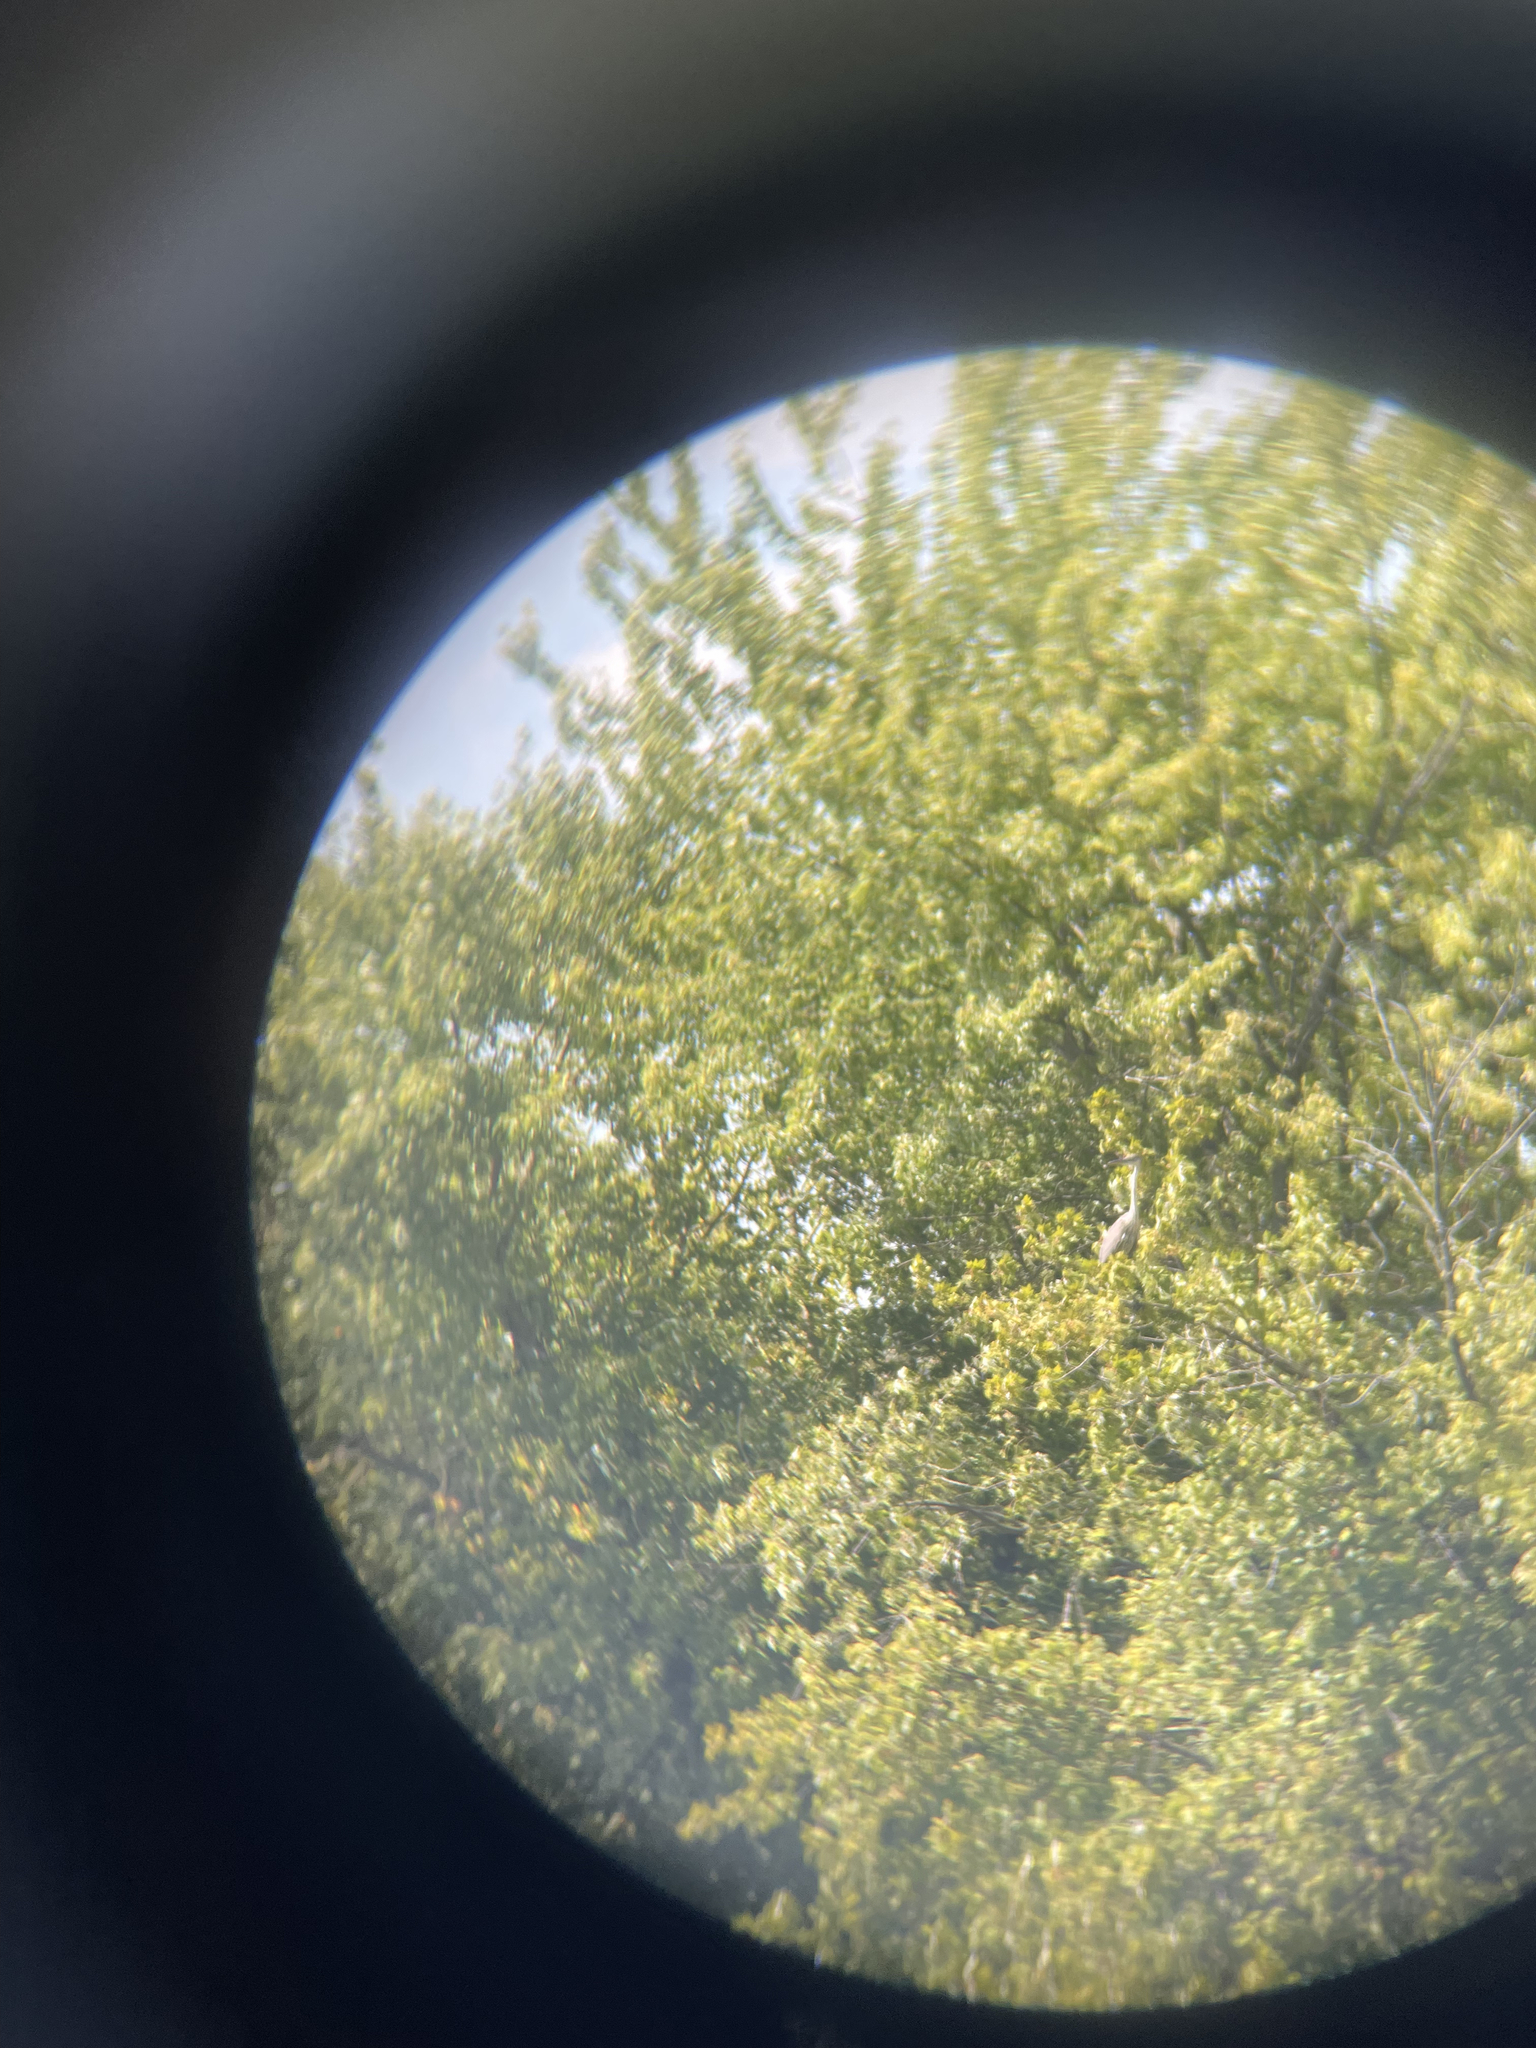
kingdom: Animalia
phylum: Chordata
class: Aves
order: Pelecaniformes
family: Ardeidae
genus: Ardea
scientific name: Ardea herodias
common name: Great blue heron
